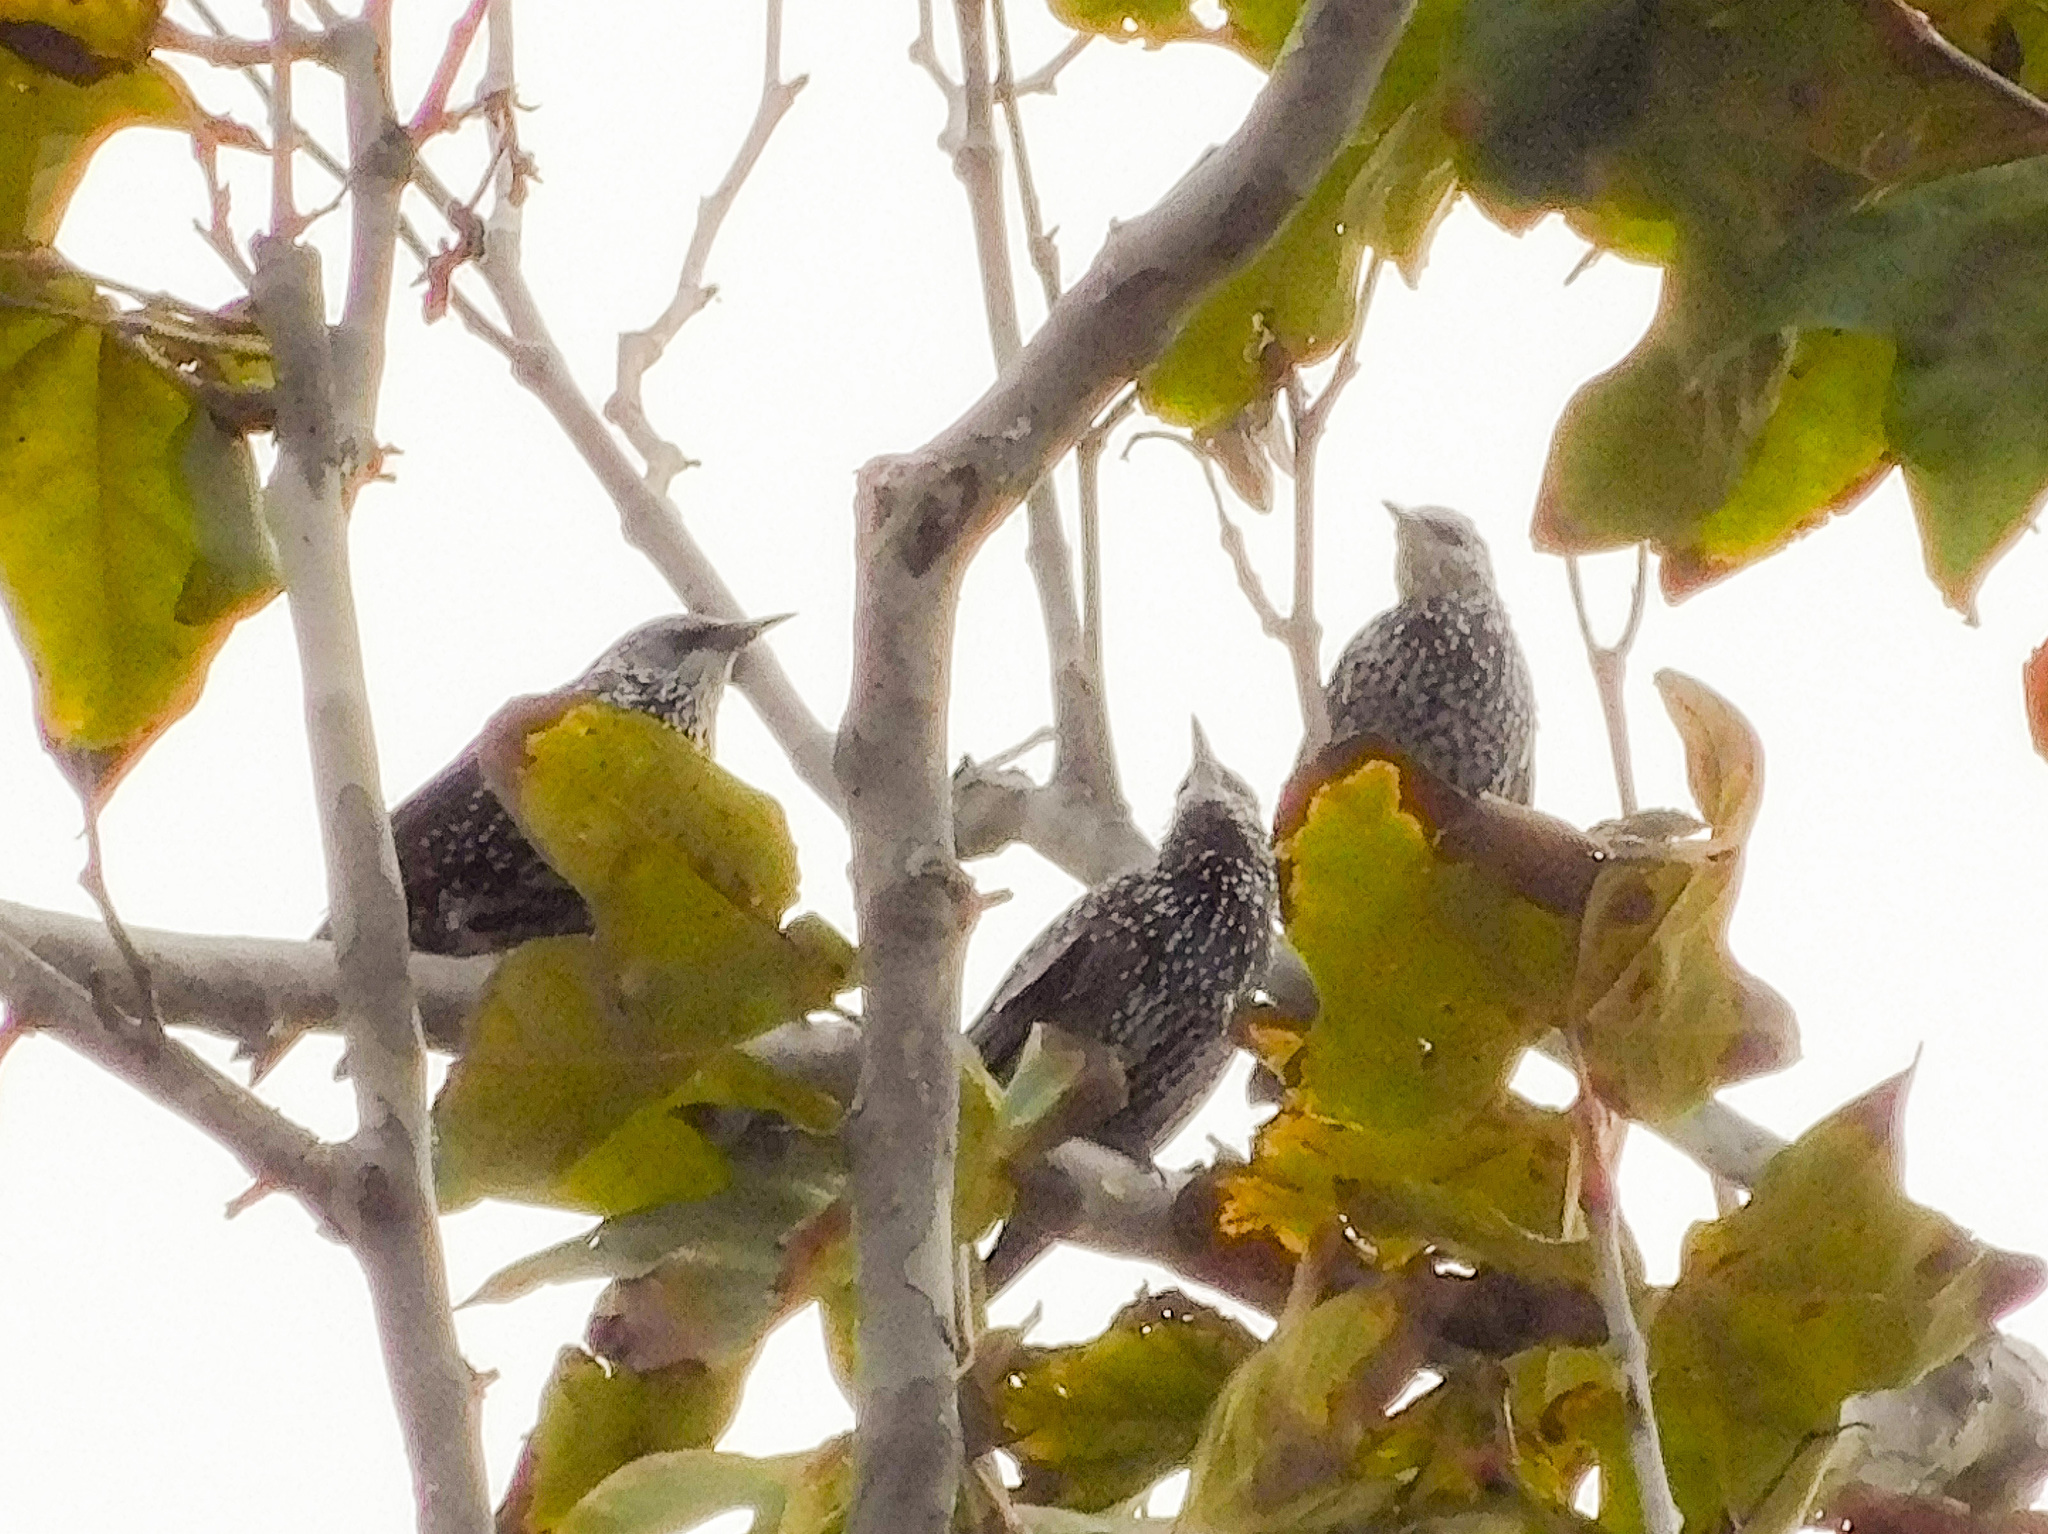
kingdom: Animalia
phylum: Chordata
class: Aves
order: Passeriformes
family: Sturnidae
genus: Sturnus
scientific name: Sturnus vulgaris
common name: Common starling
